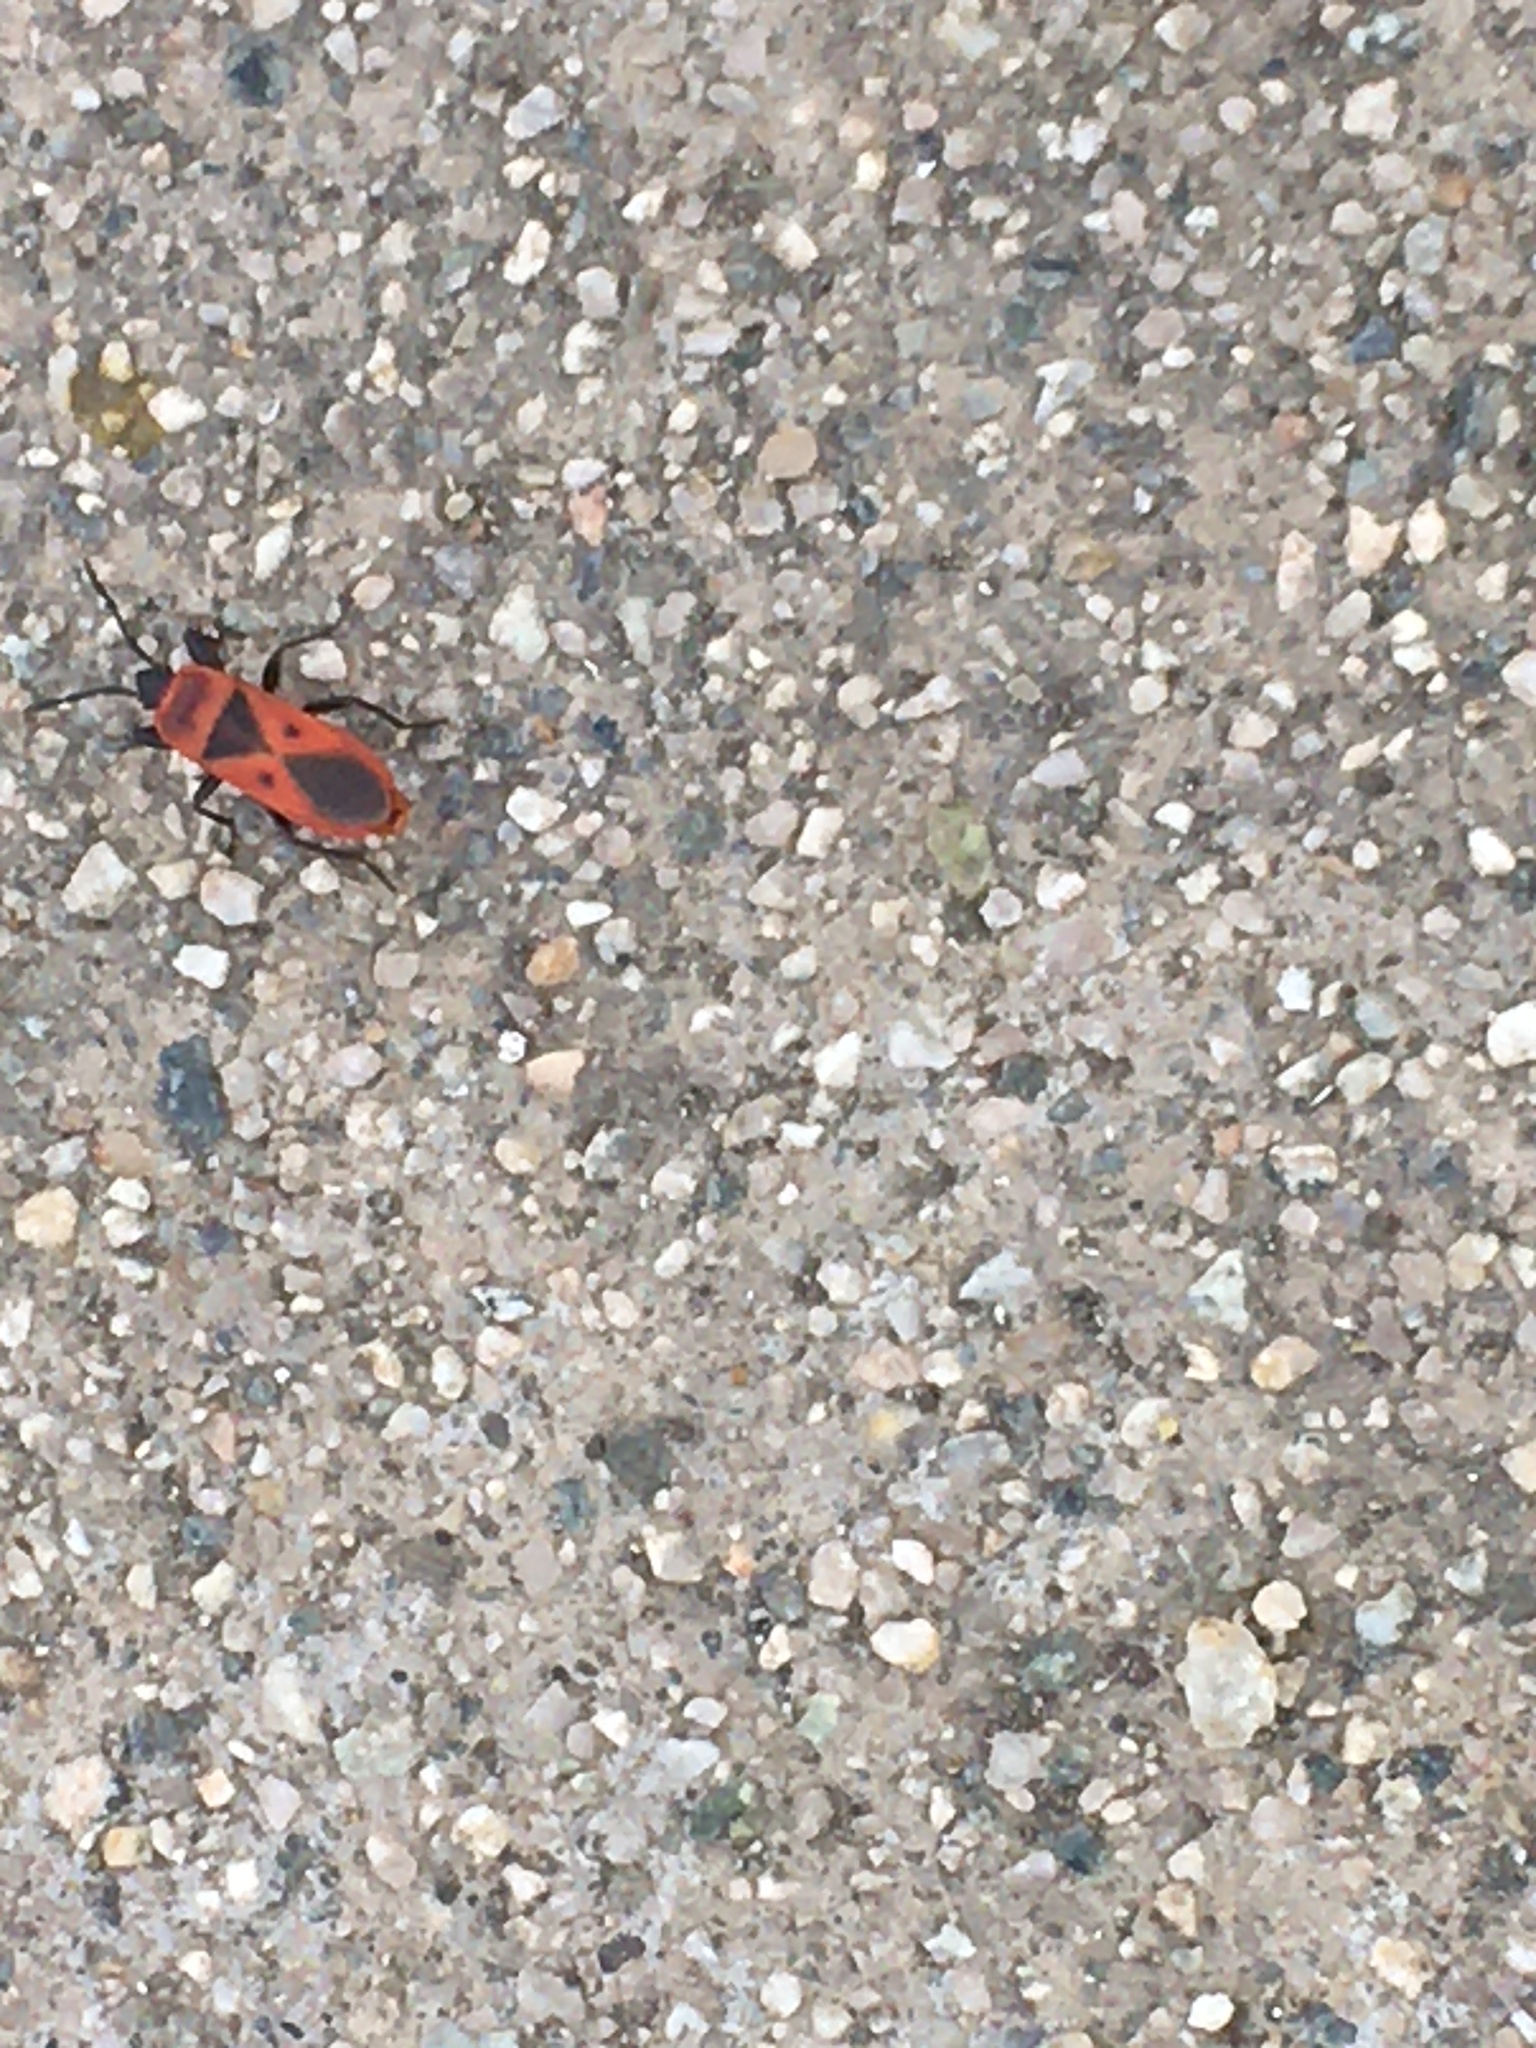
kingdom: Animalia
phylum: Arthropoda
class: Insecta
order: Hemiptera
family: Pyrrhocoridae
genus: Scantius
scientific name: Scantius aegyptius
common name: Red bug
